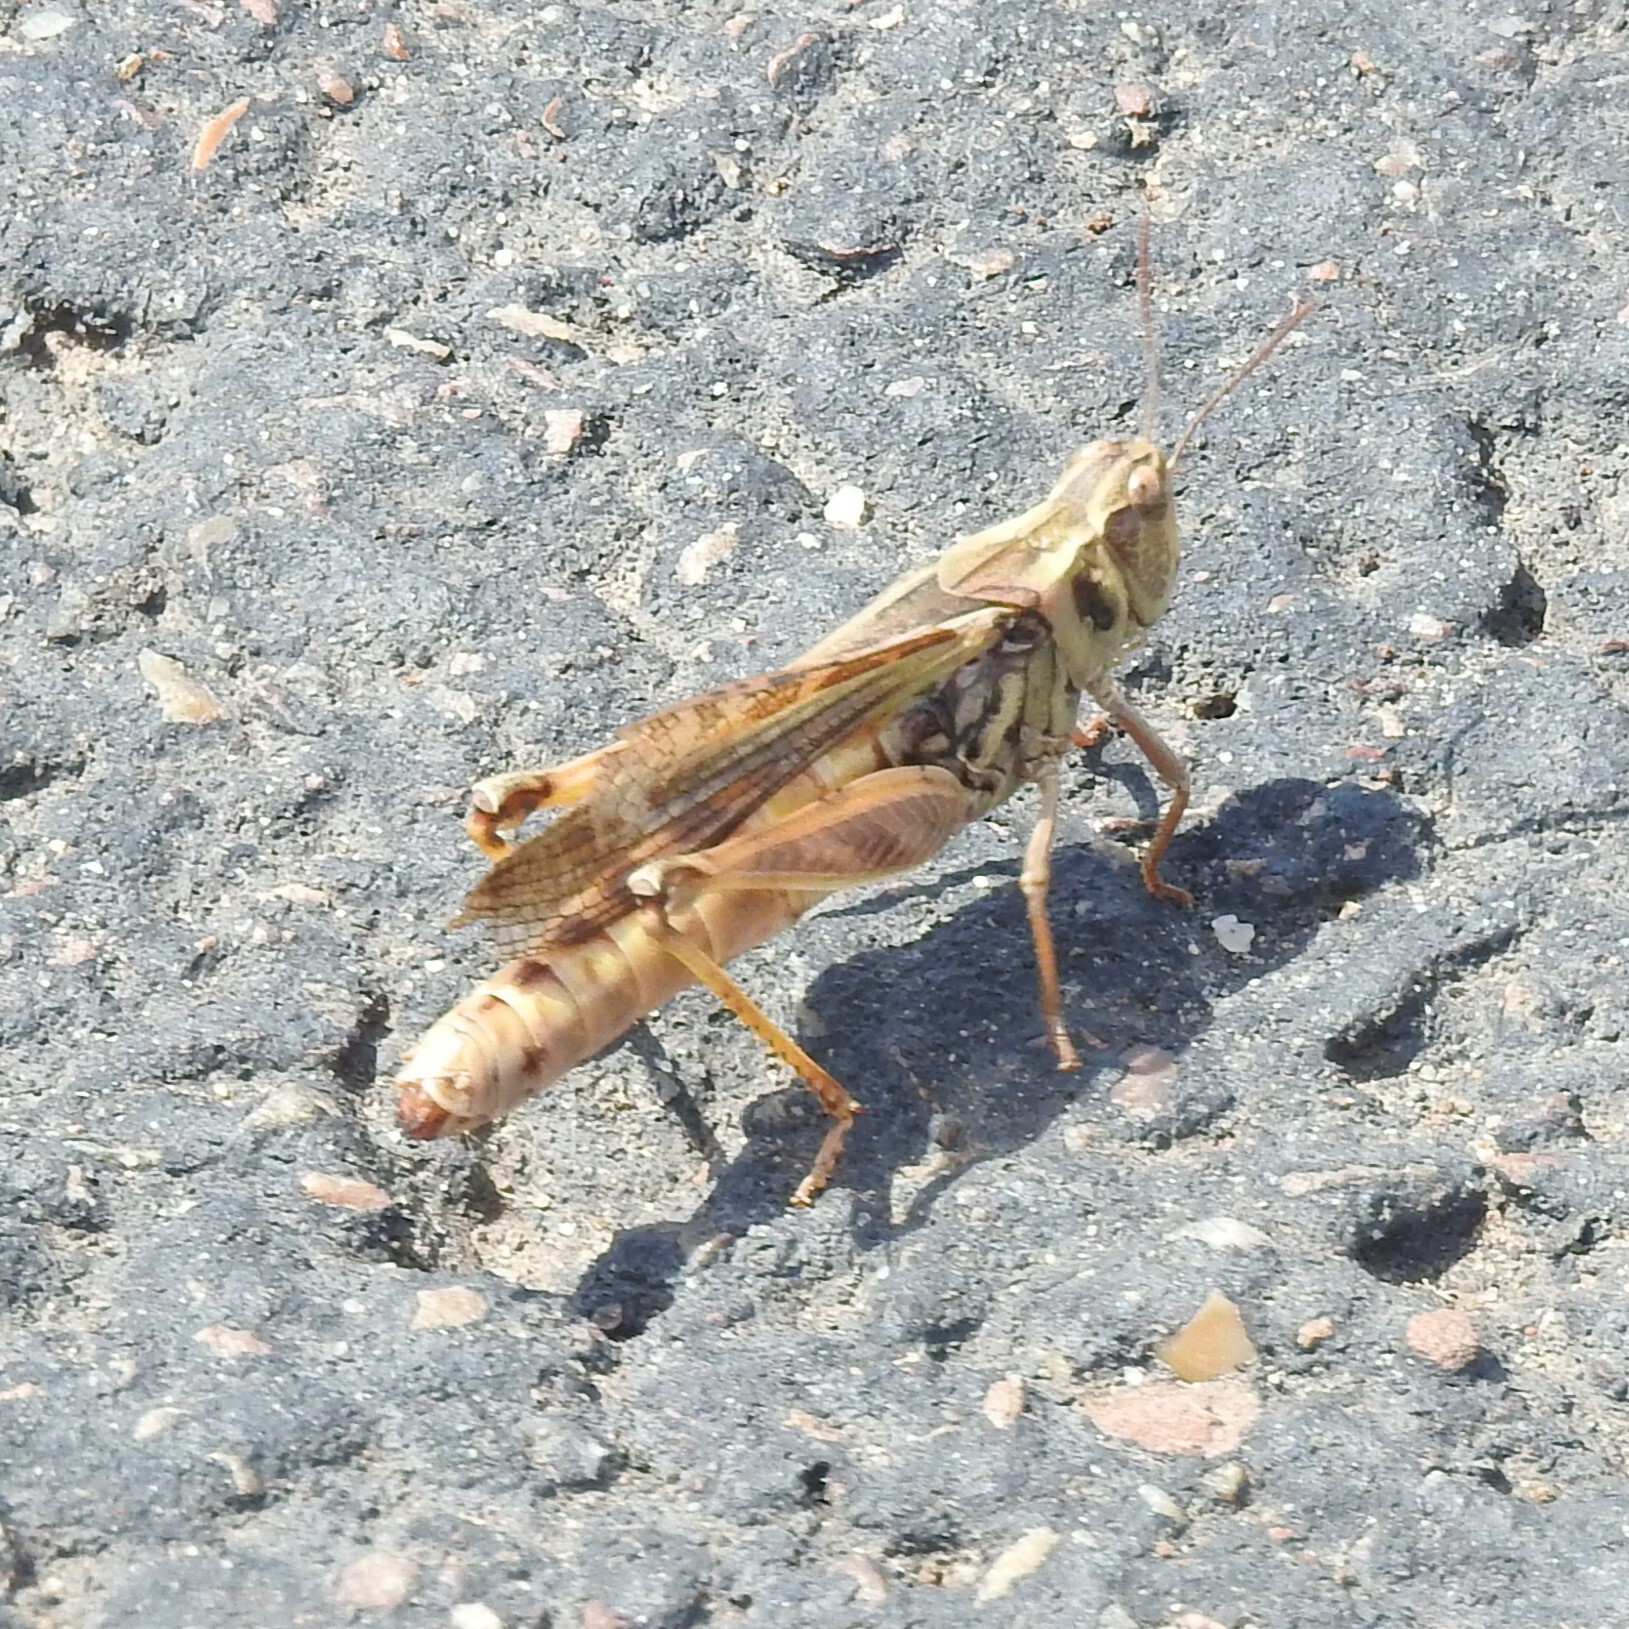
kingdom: Animalia
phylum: Arthropoda
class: Insecta
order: Orthoptera
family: Acrididae
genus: Camnula
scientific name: Camnula pellucida
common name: Clear-winged grasshopper
